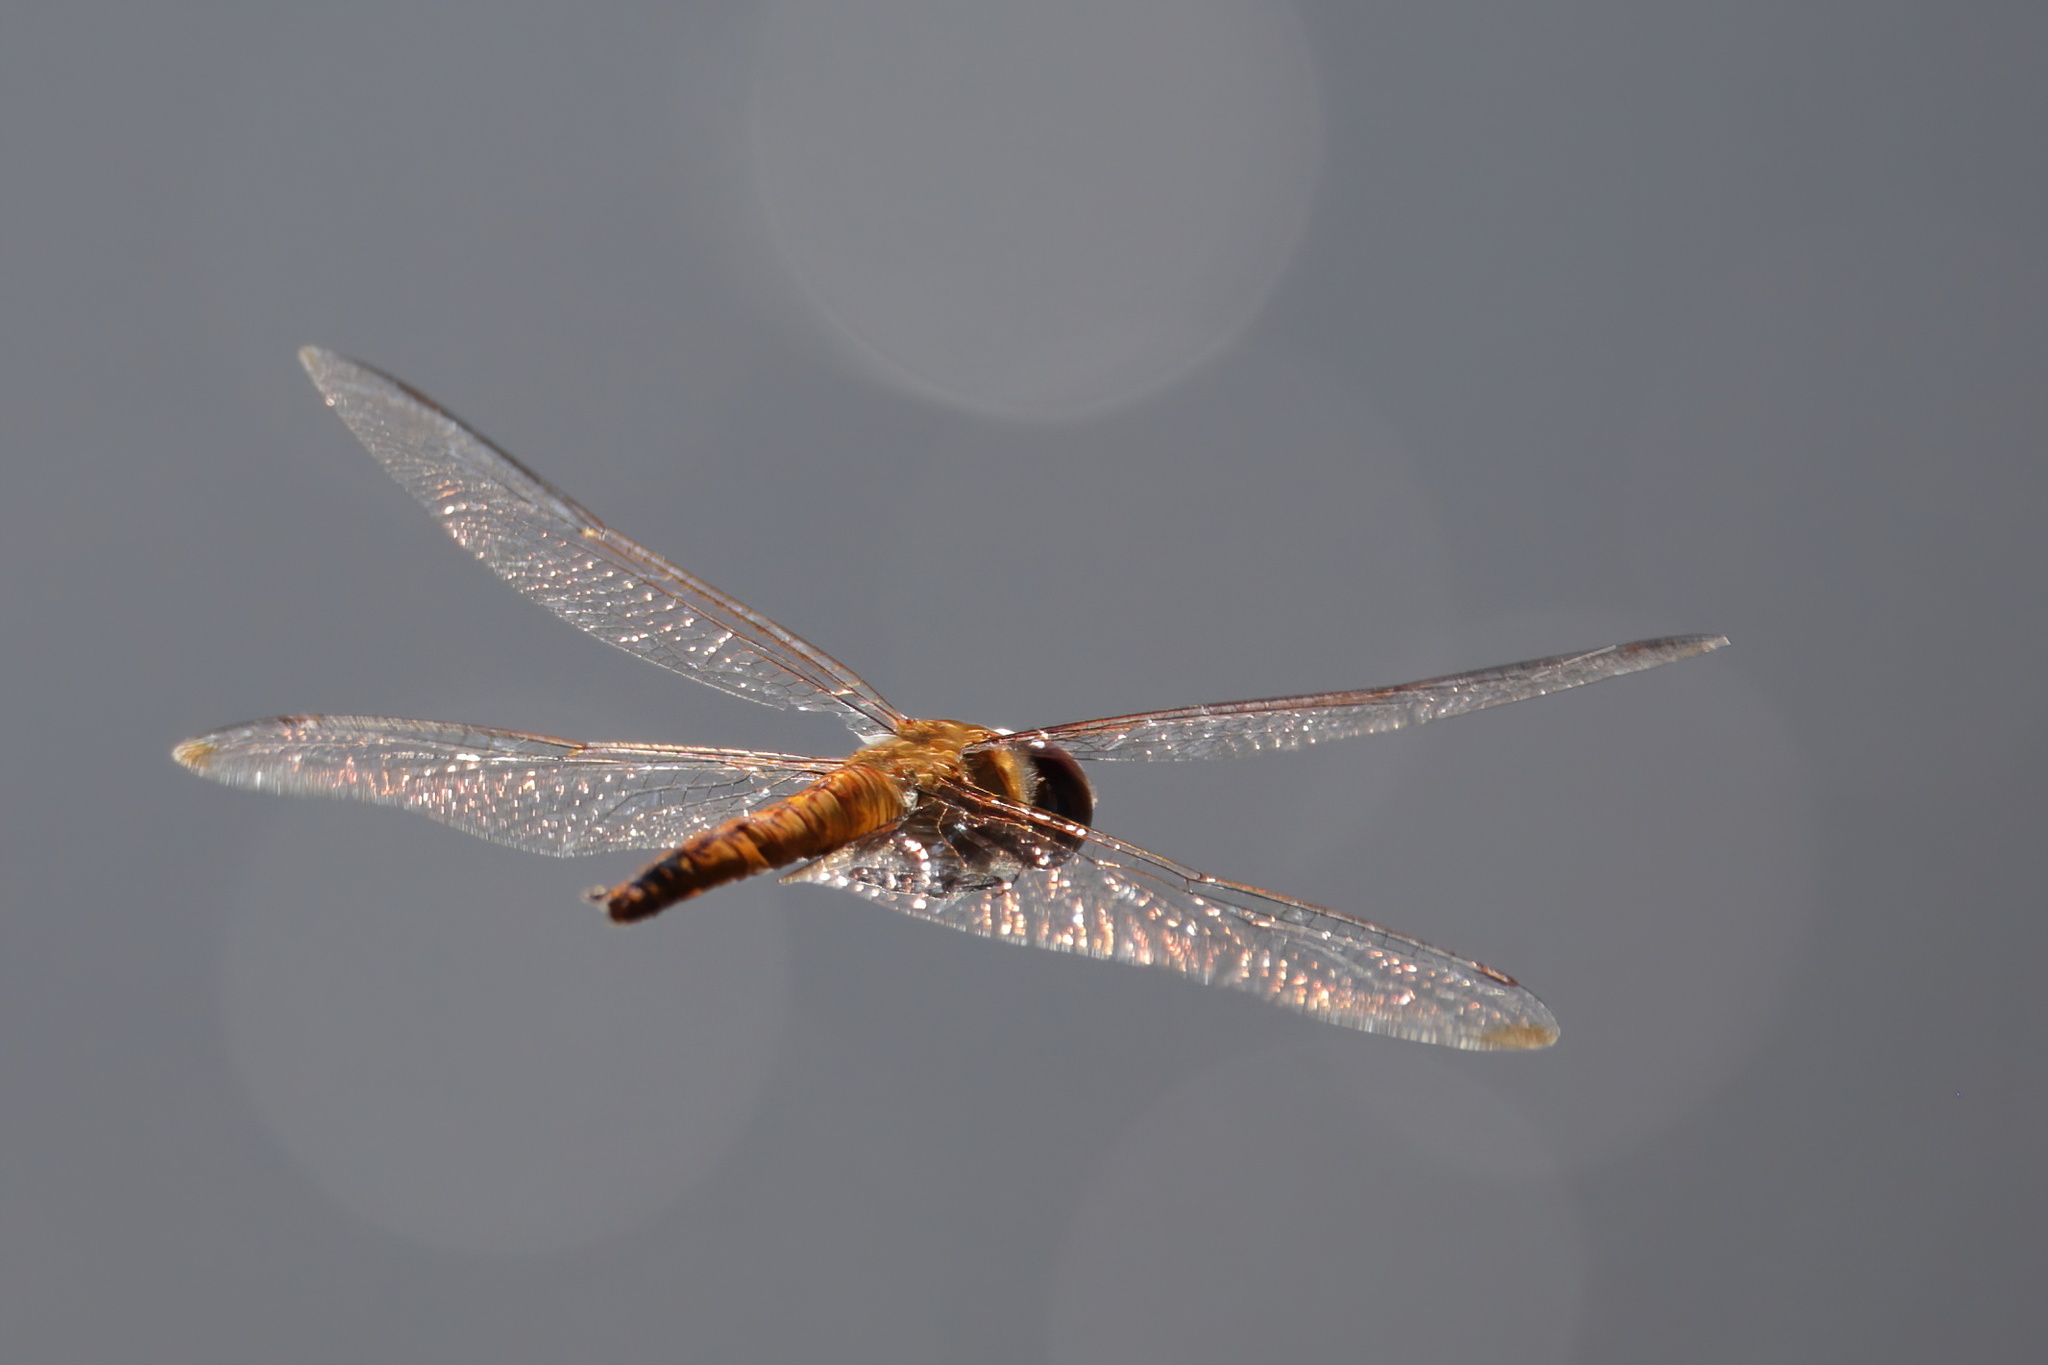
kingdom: Animalia
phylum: Arthropoda
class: Insecta
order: Odonata
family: Libellulidae
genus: Pantala
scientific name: Pantala flavescens
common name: Wandering glider
